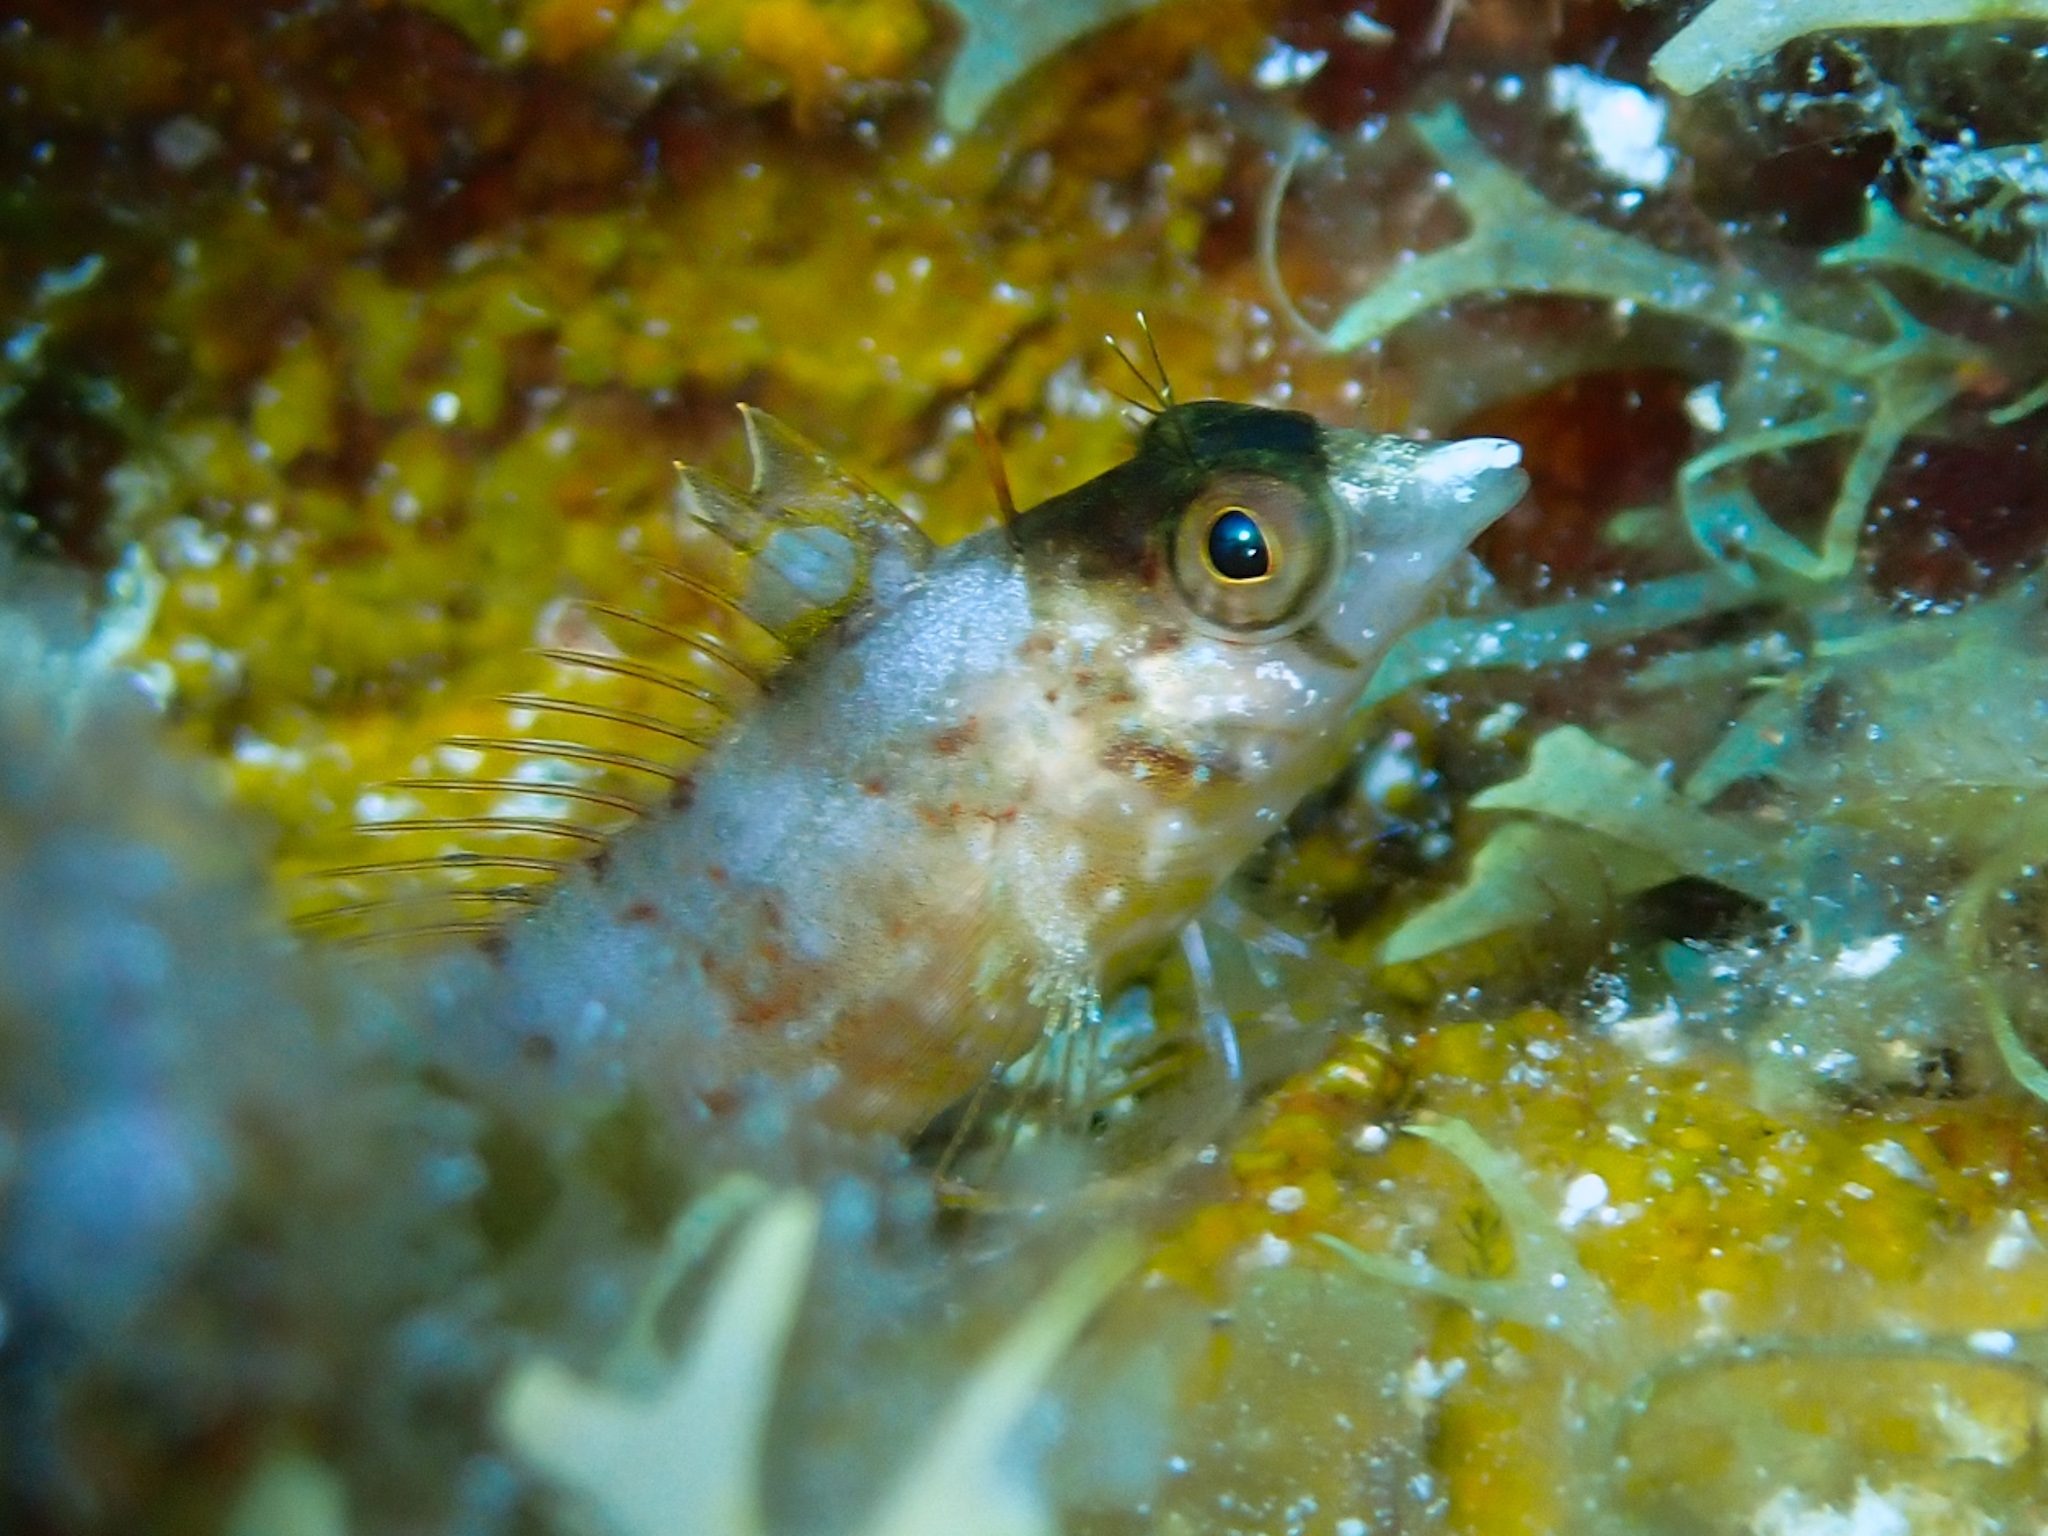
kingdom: Animalia
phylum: Chordata
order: Perciformes
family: Labrisomidae
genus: Malacoctenus
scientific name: Malacoctenus boehlkei
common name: Diamond blenny
